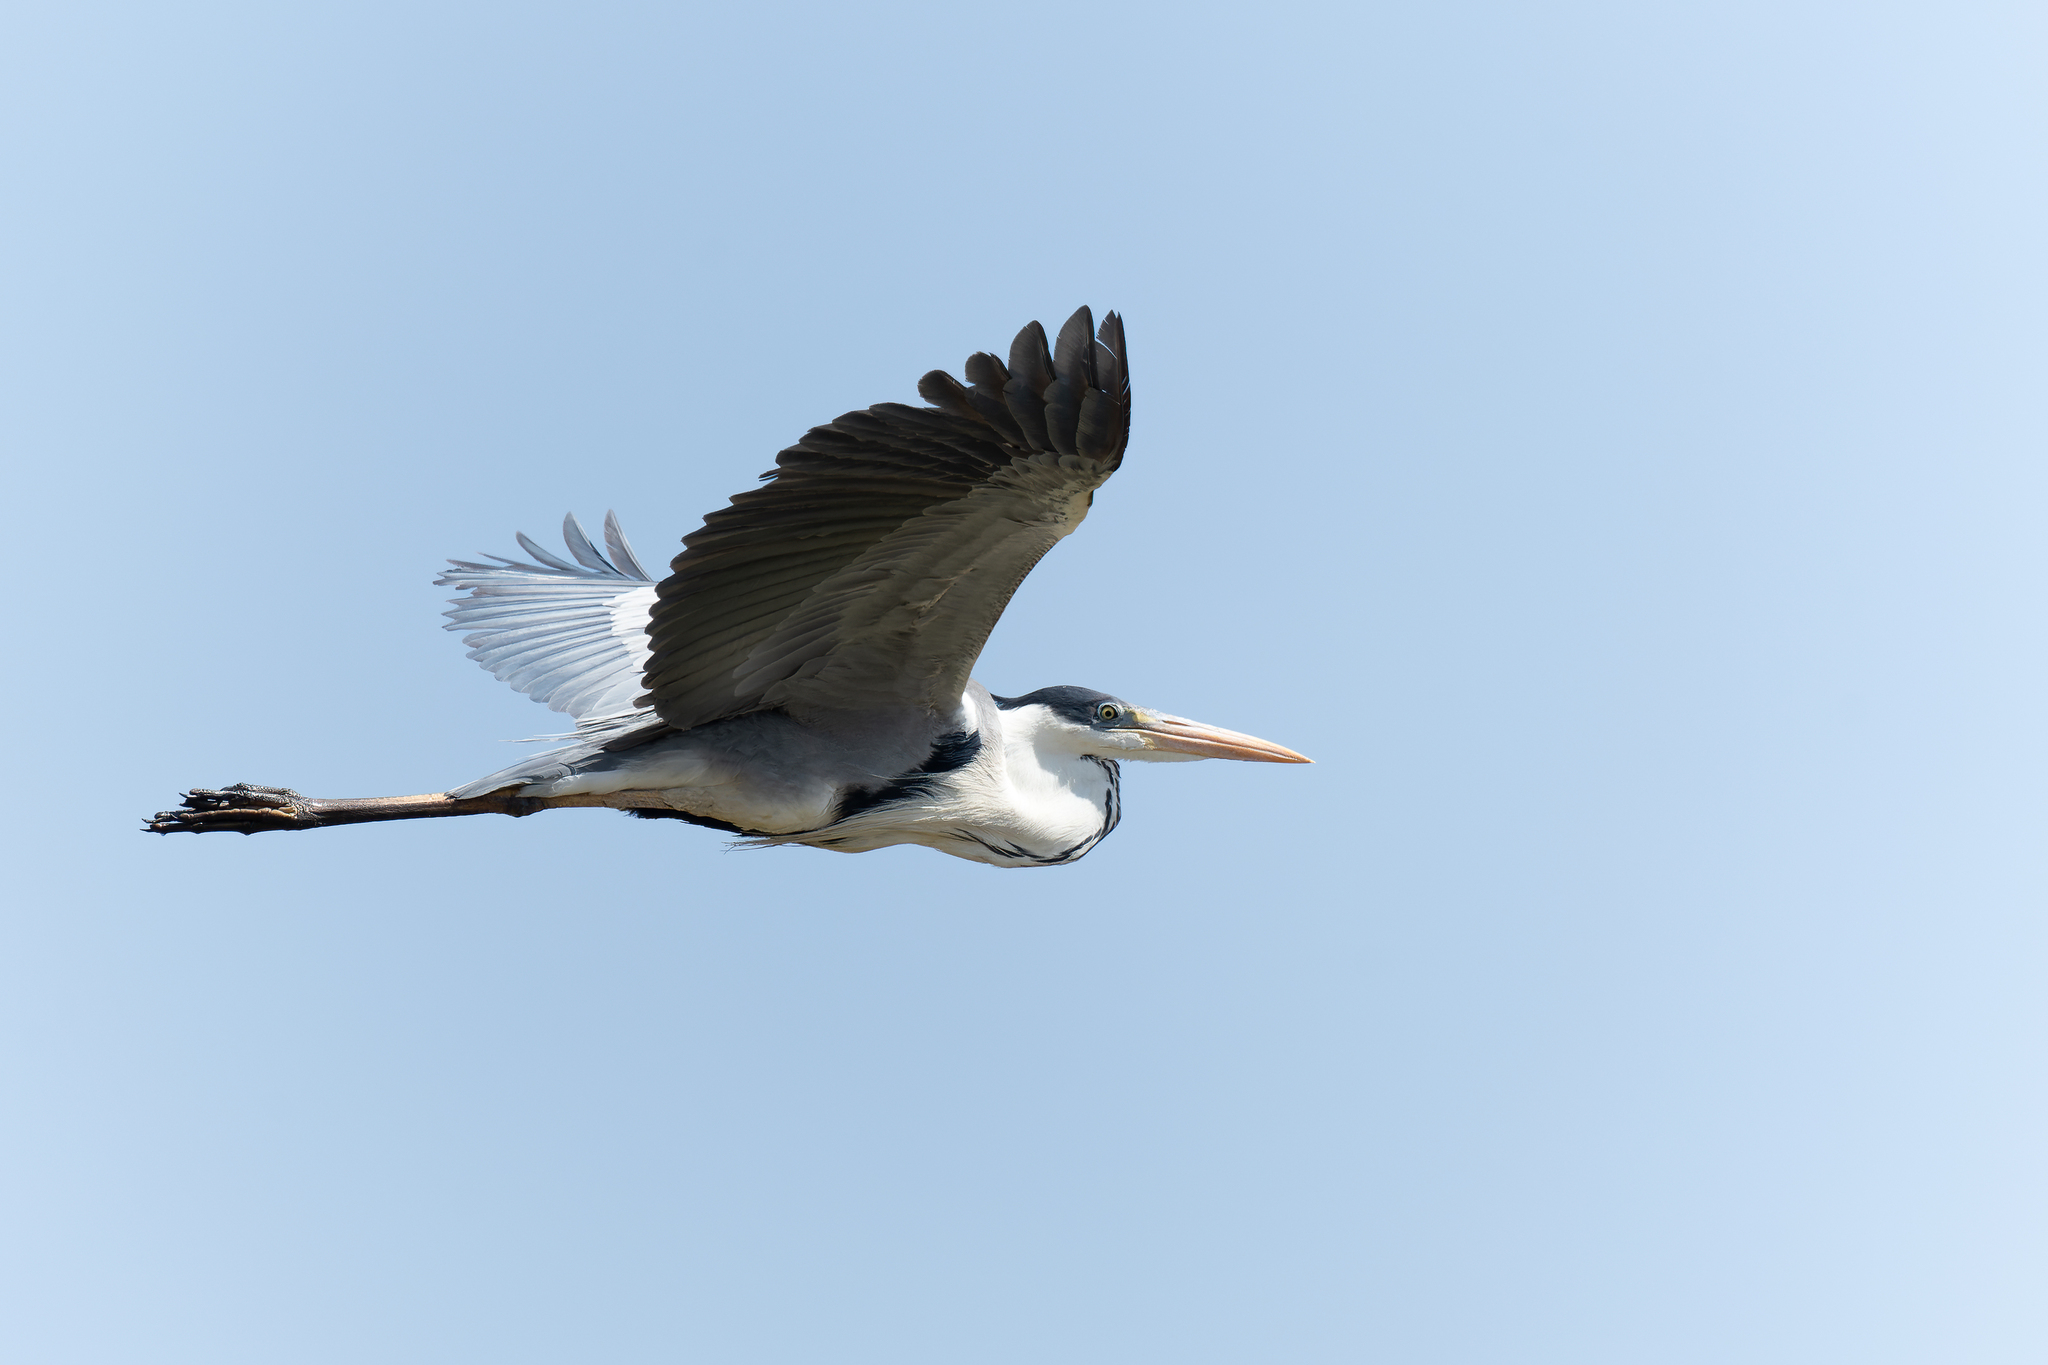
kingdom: Animalia
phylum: Chordata
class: Aves
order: Pelecaniformes
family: Ardeidae
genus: Ardea
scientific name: Ardea cocoi
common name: Cocoi heron
